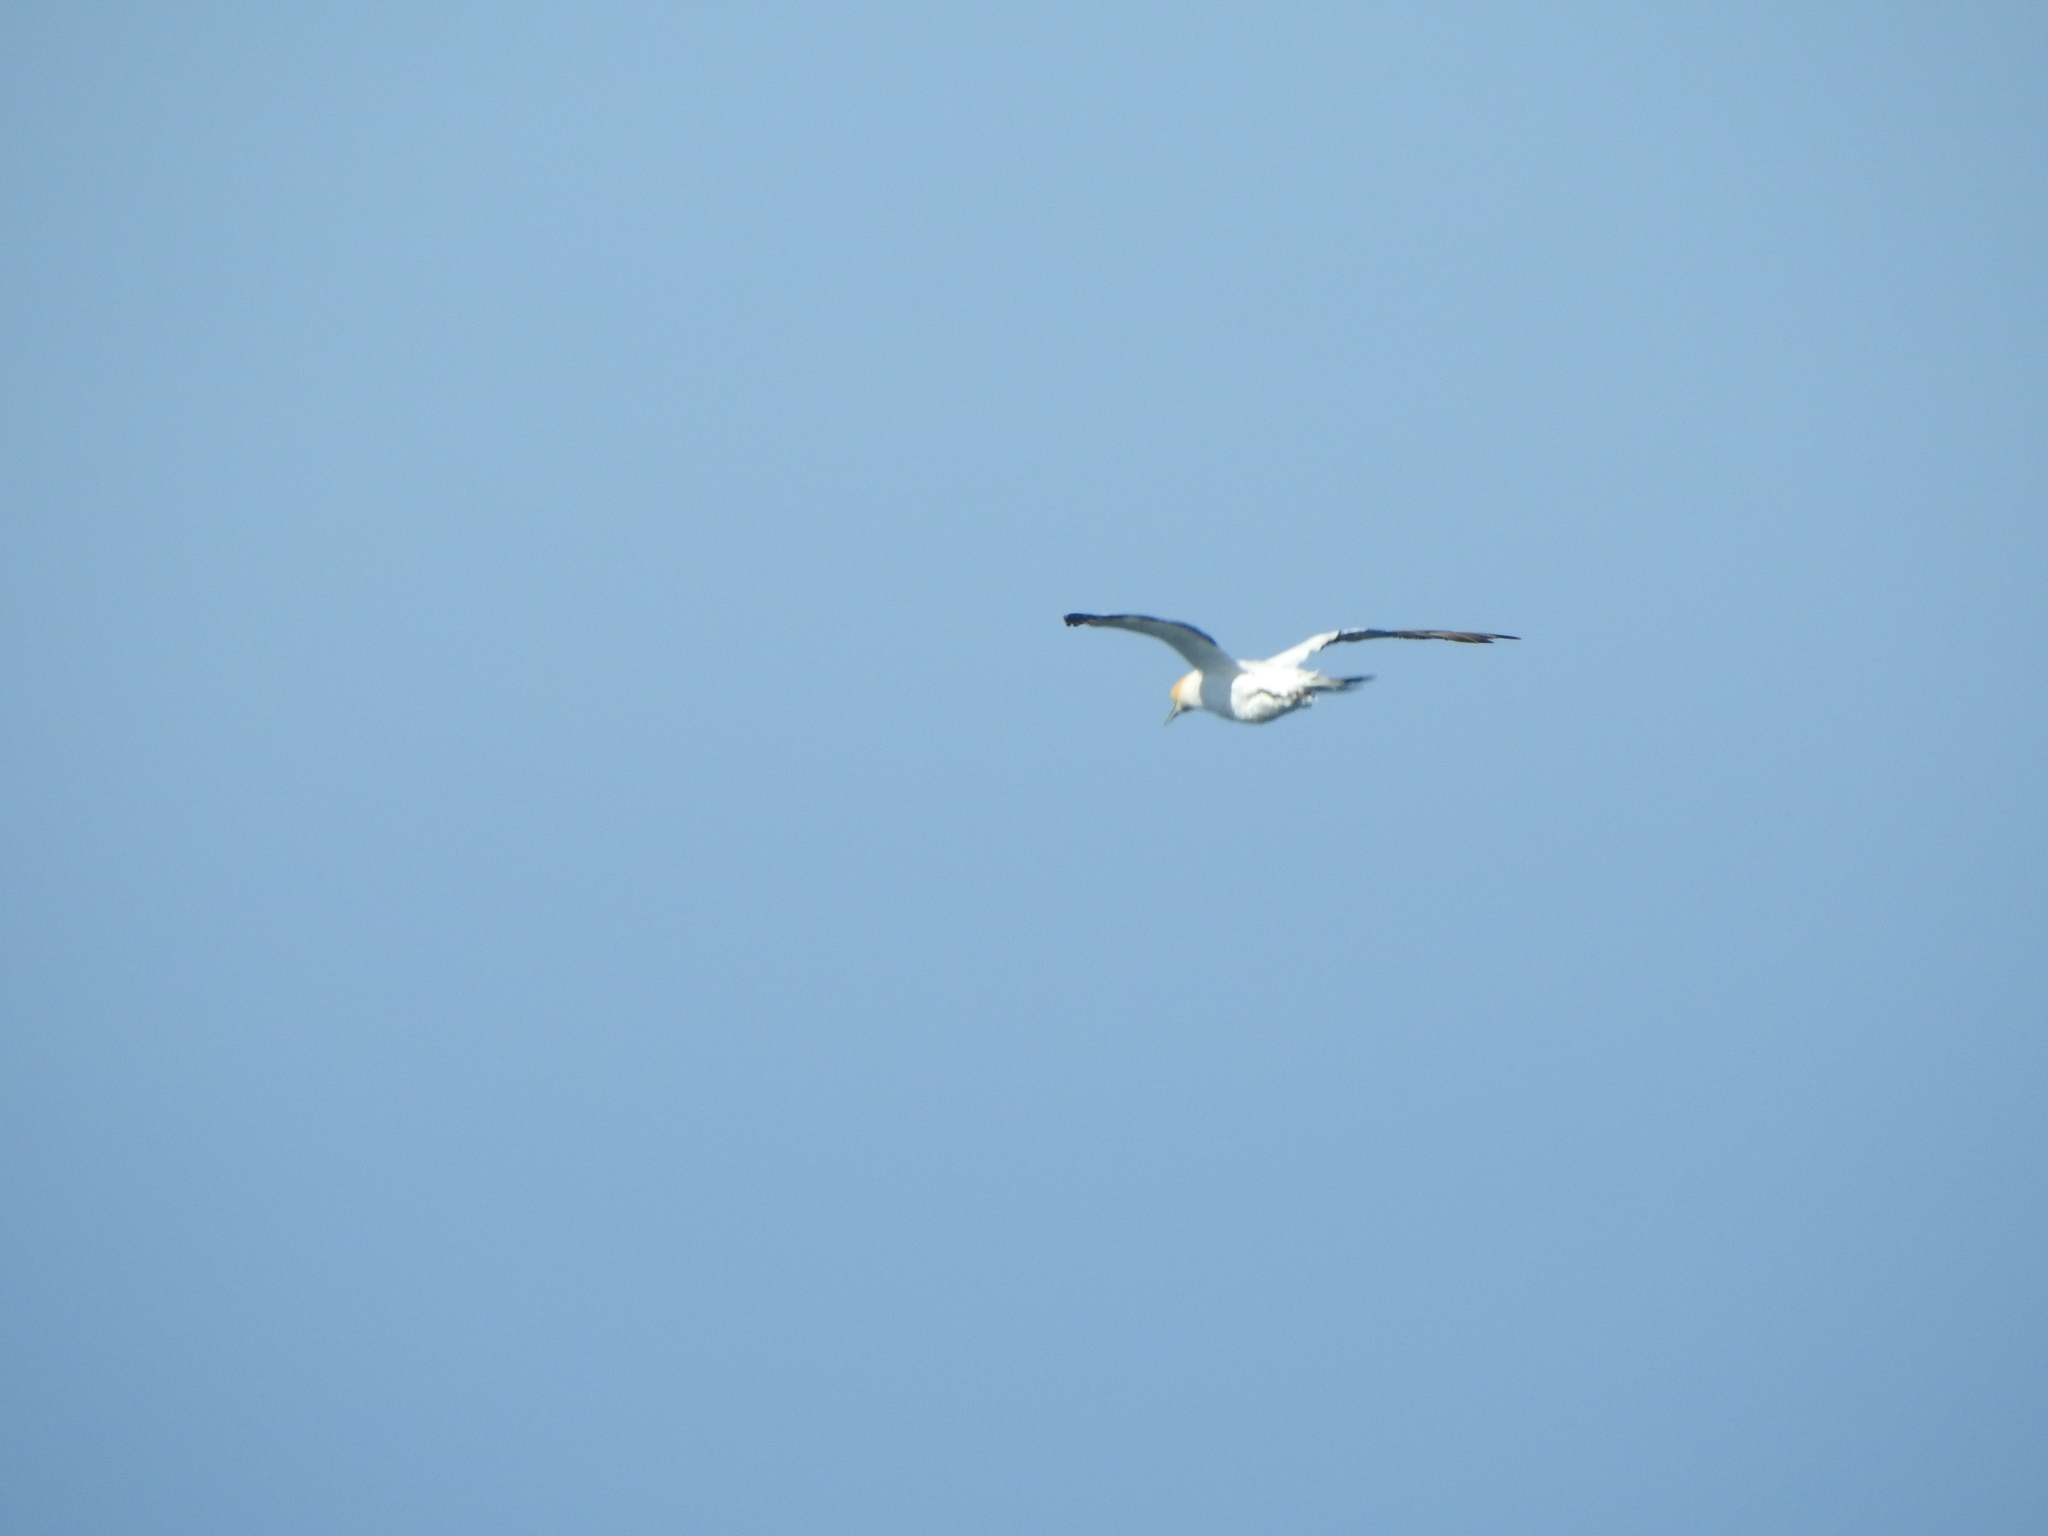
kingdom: Animalia
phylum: Chordata
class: Aves
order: Suliformes
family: Sulidae
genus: Morus
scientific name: Morus serrator
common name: Australasian gannet
